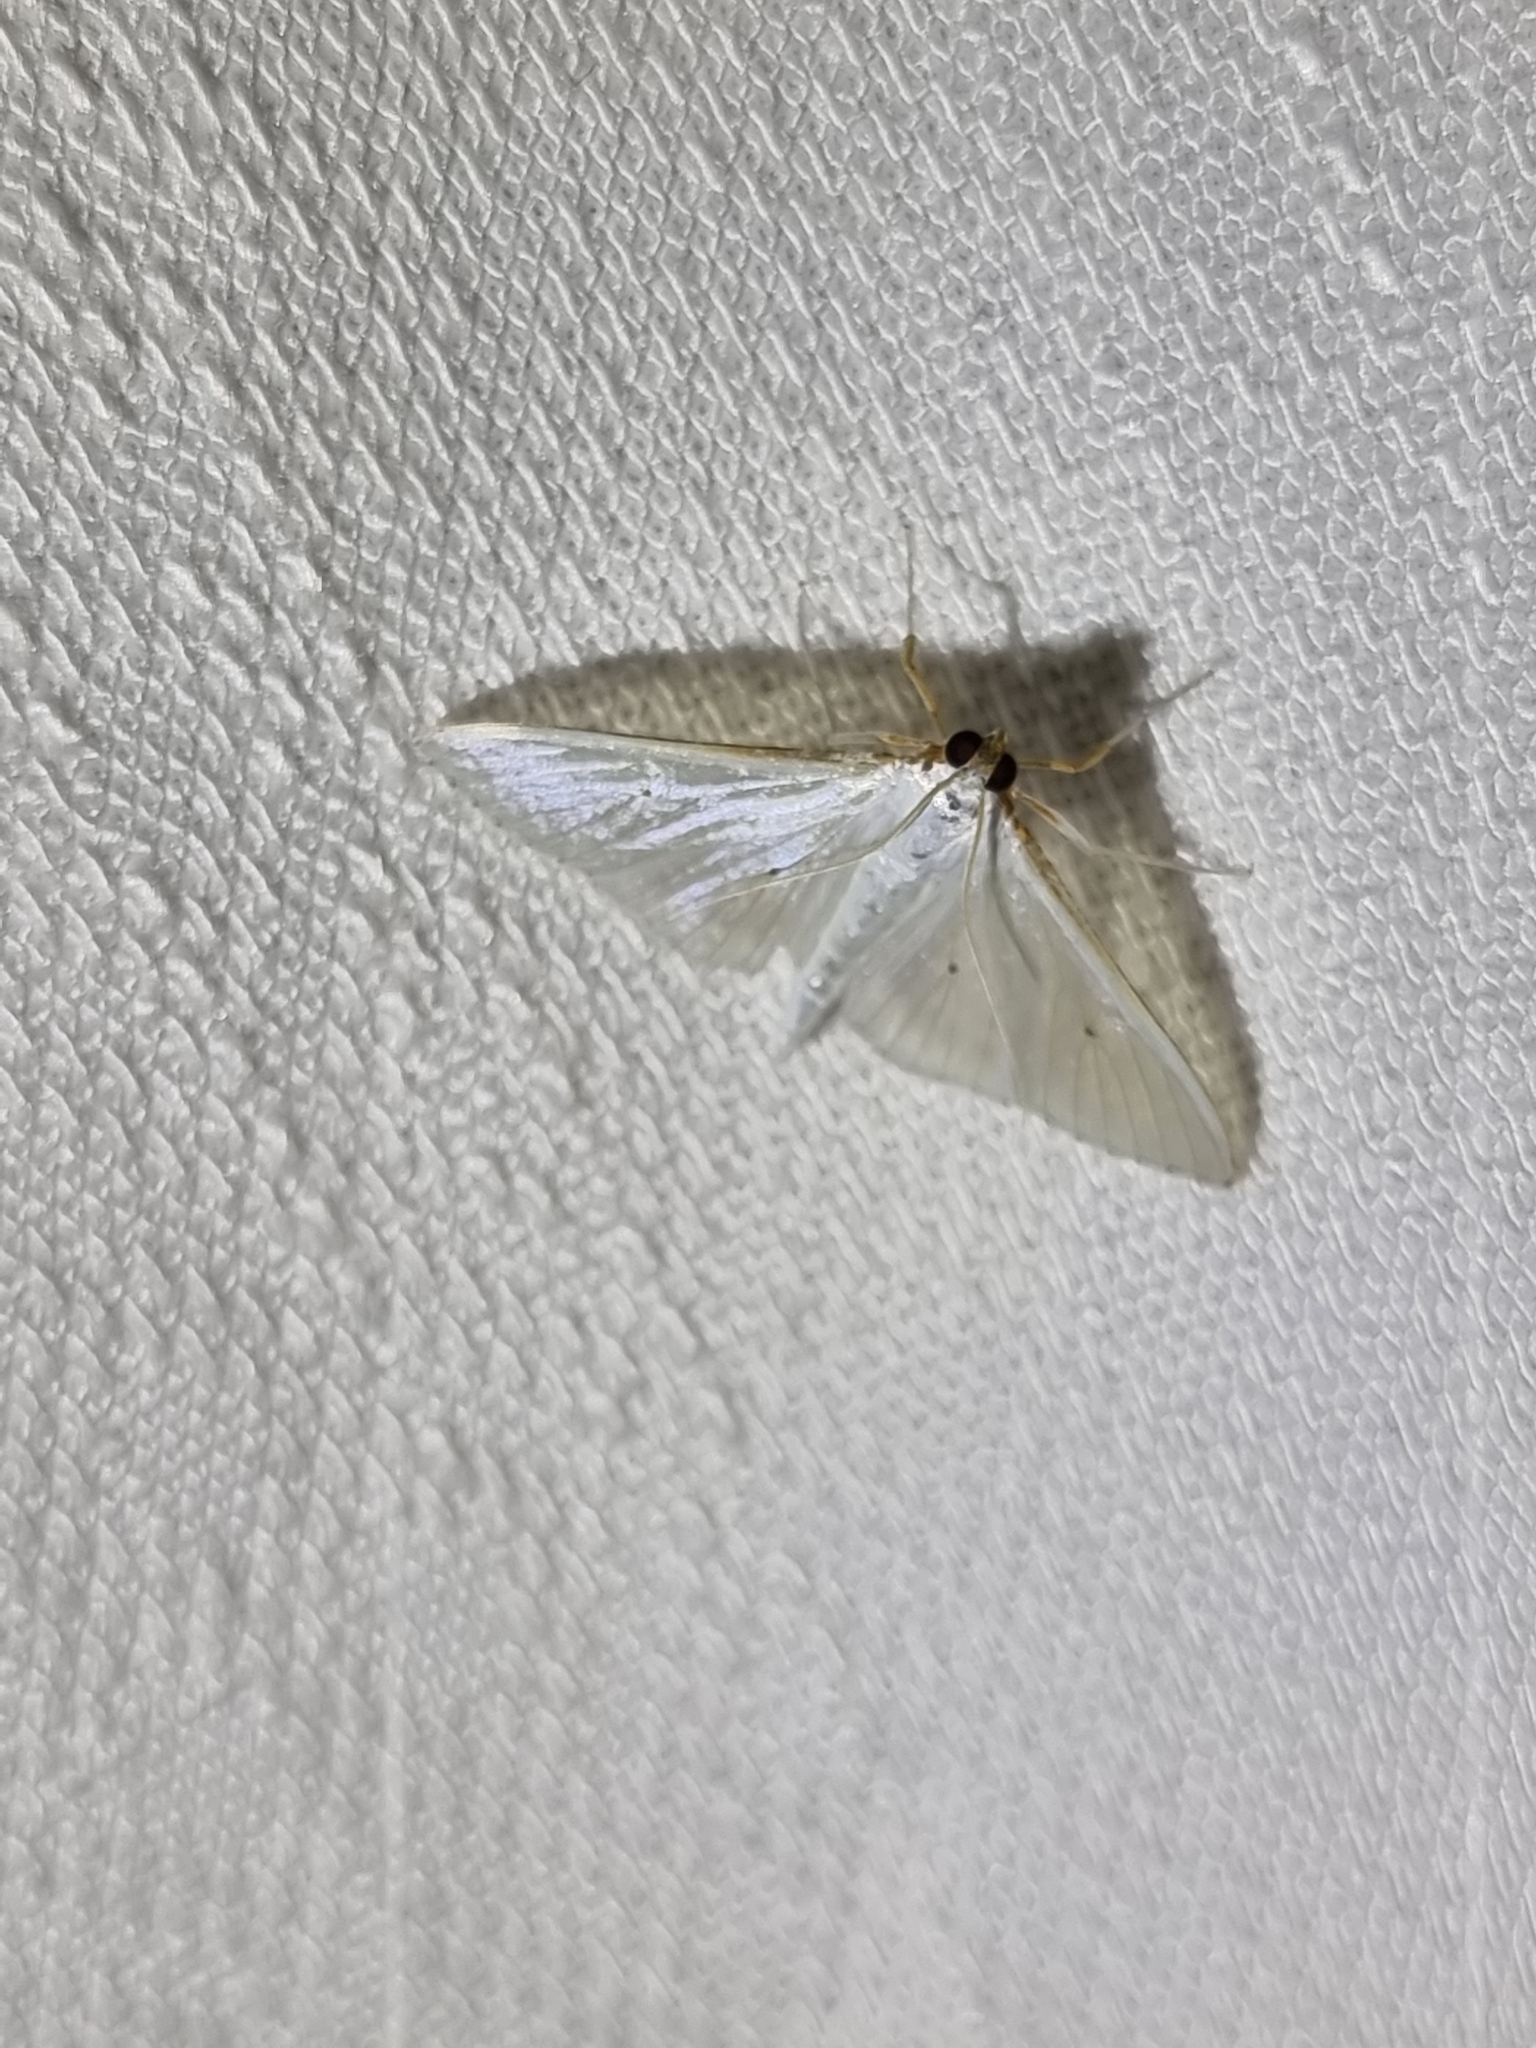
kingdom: Animalia
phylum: Arthropoda
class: Insecta
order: Lepidoptera
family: Crambidae
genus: Palpita
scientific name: Palpita margaritacea
